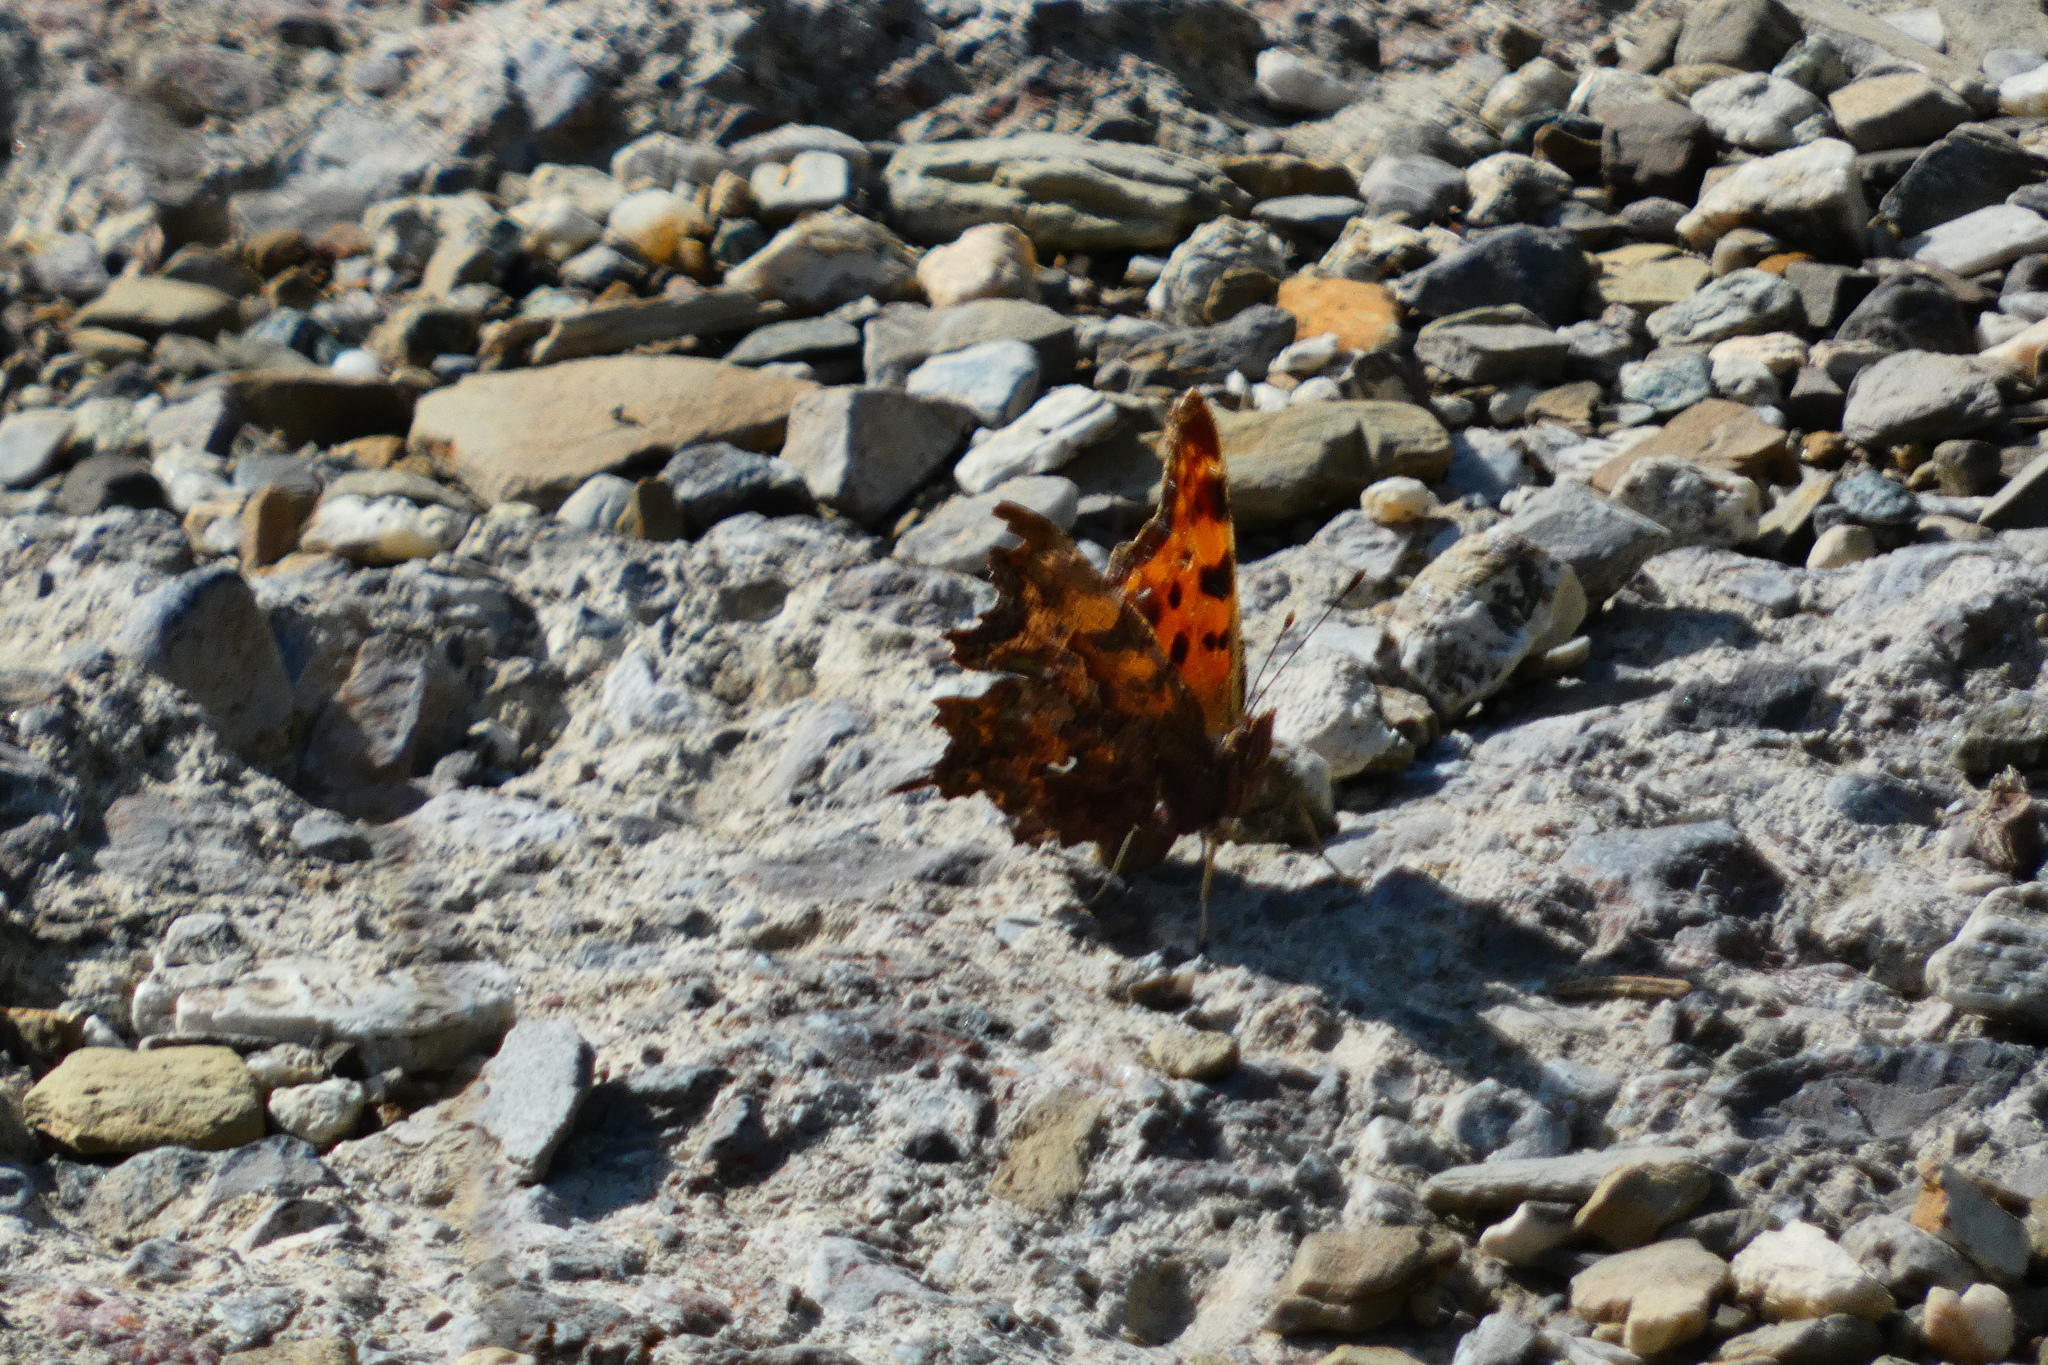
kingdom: Animalia
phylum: Arthropoda
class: Insecta
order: Lepidoptera
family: Nymphalidae
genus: Polygonia
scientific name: Polygonia c-album
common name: Comma
